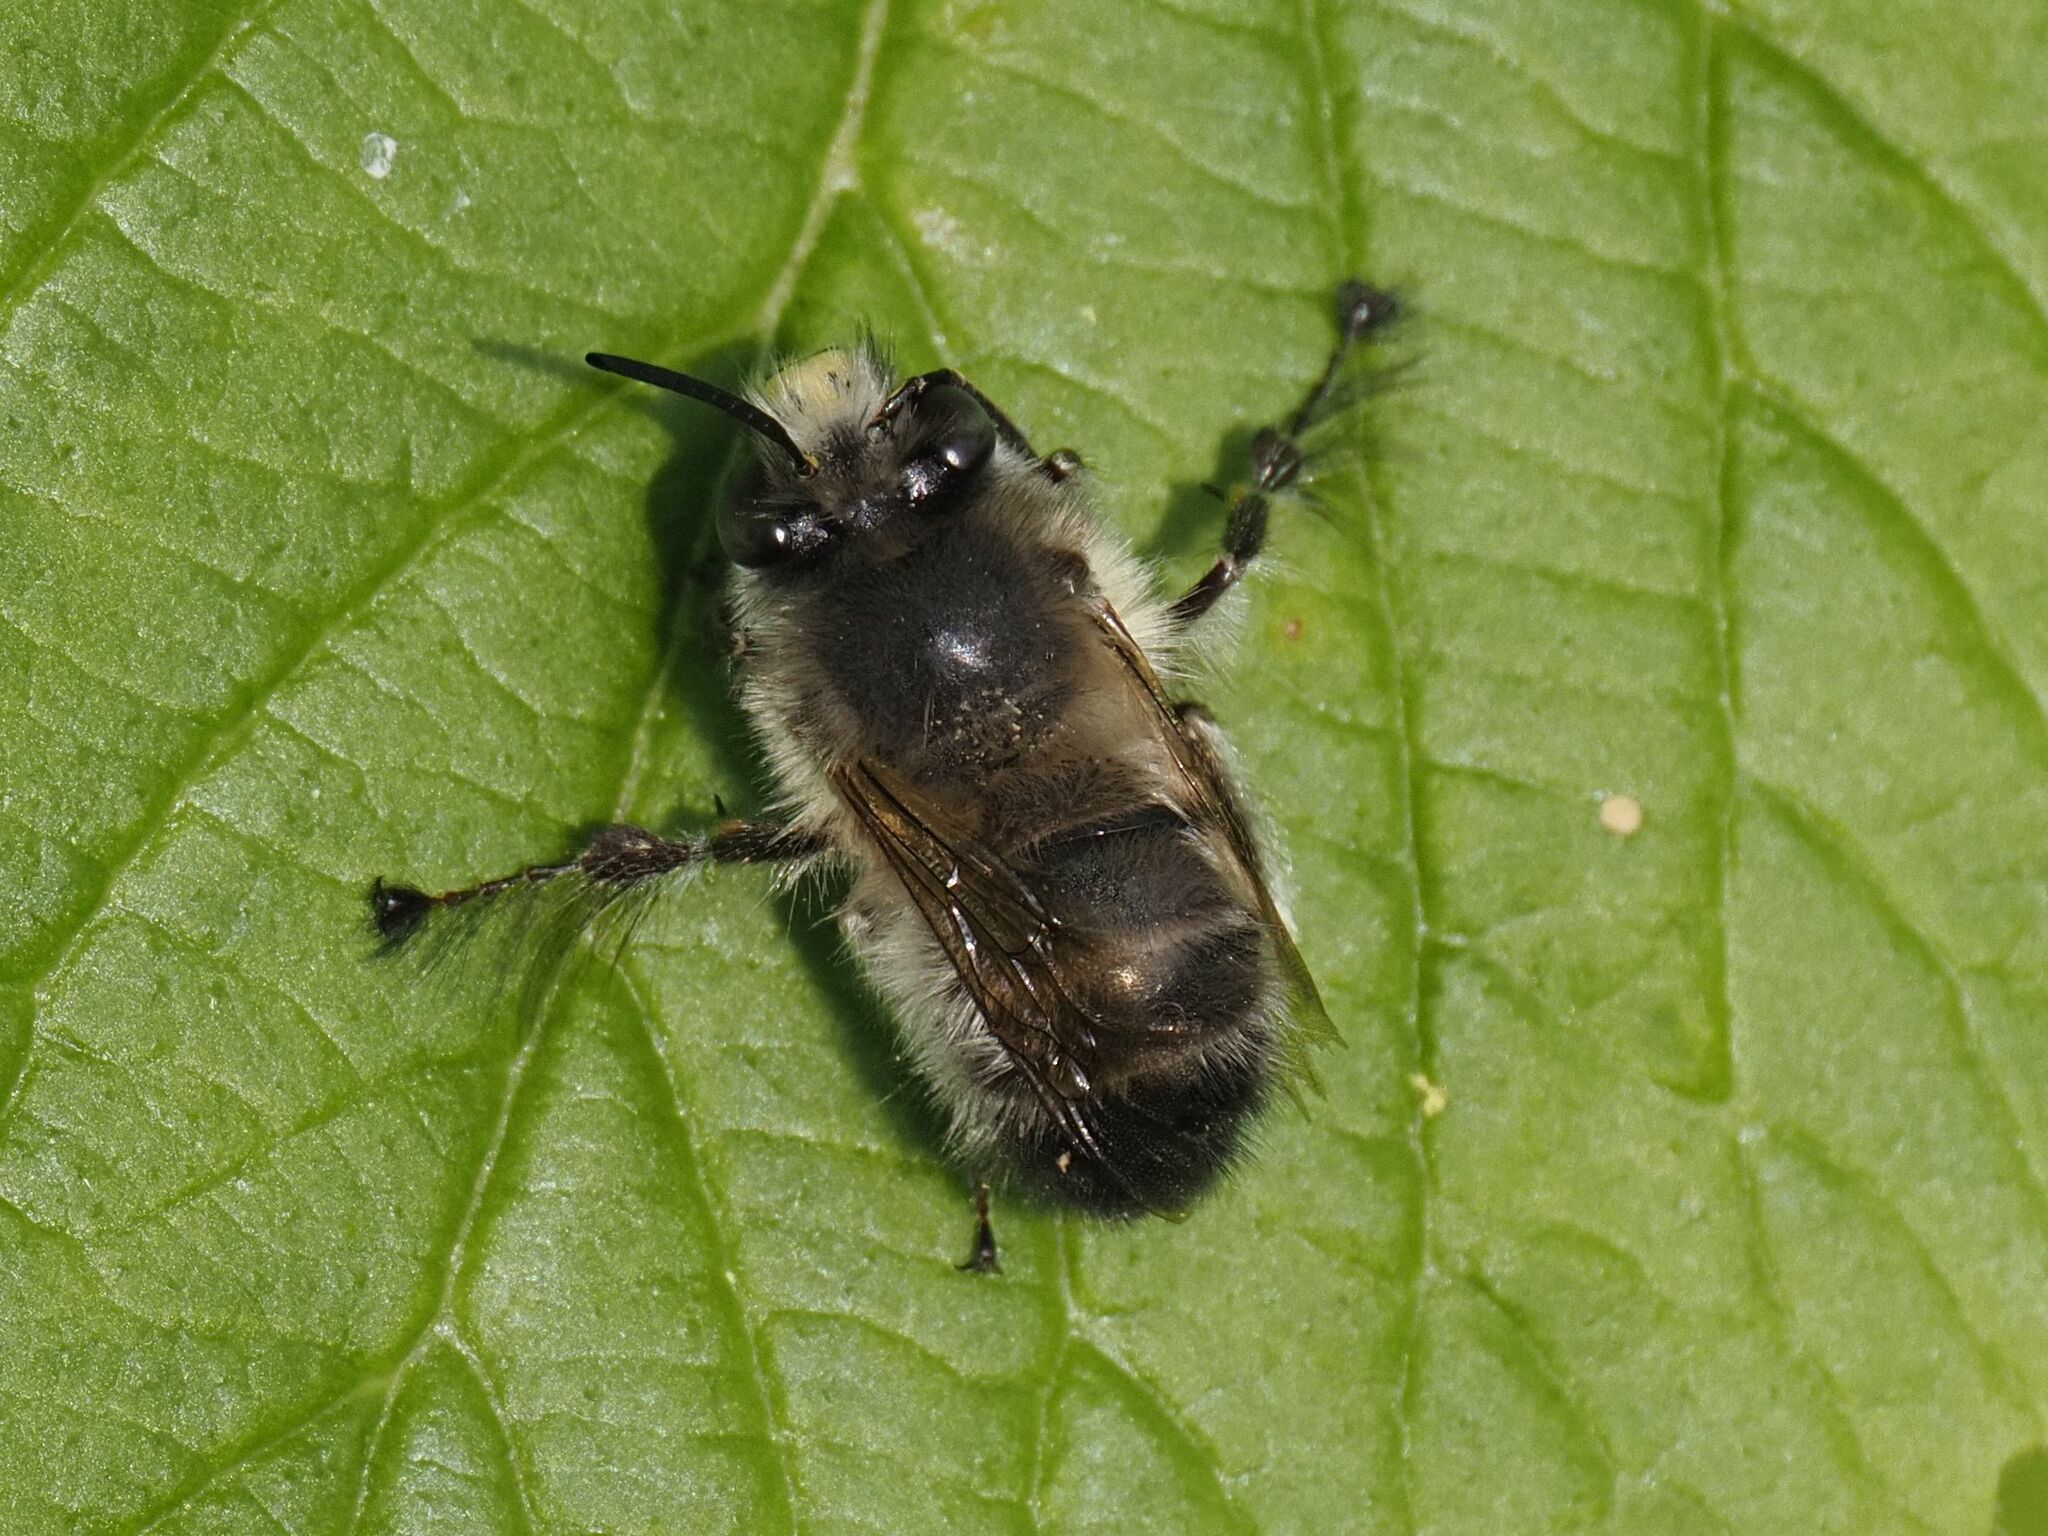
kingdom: Animalia
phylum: Arthropoda
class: Insecta
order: Hymenoptera
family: Apidae
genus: Anthophora
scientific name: Anthophora plumipes
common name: Hairy-footed flower bee
